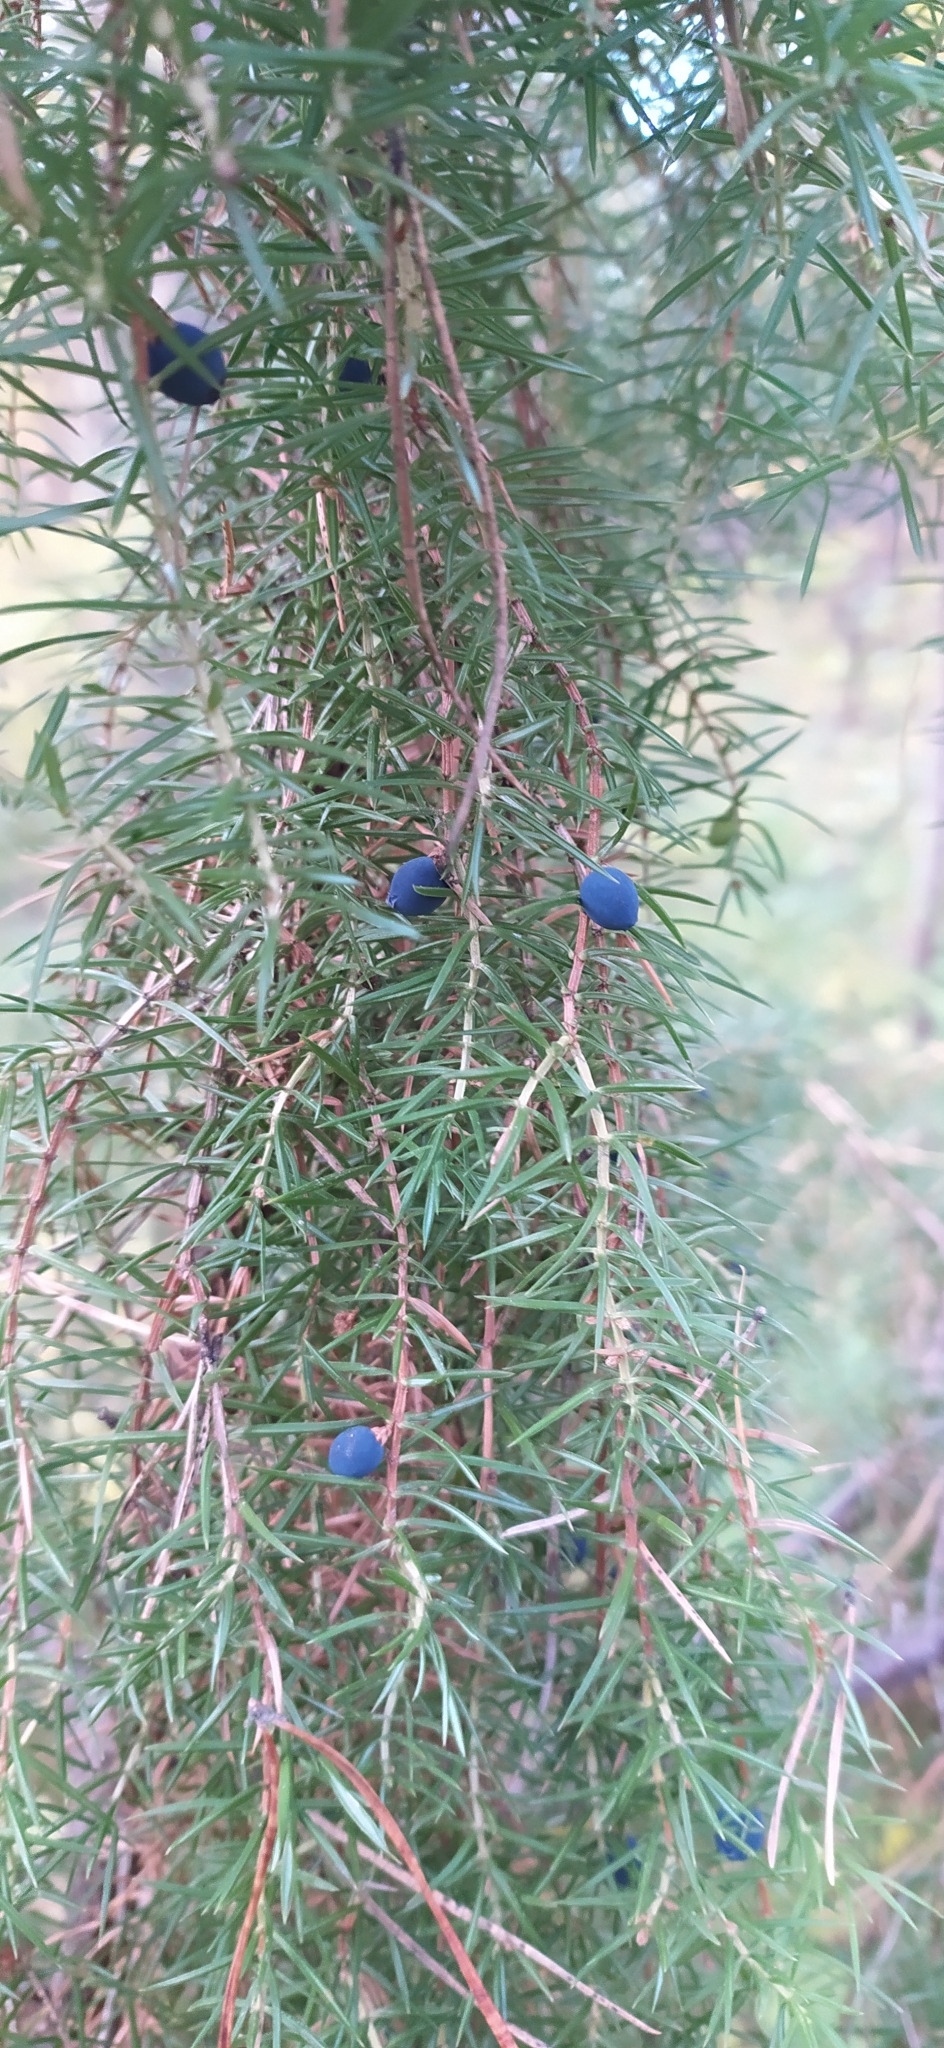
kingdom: Plantae
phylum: Tracheophyta
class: Pinopsida
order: Pinales
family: Cupressaceae
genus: Juniperus
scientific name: Juniperus communis
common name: Common juniper
